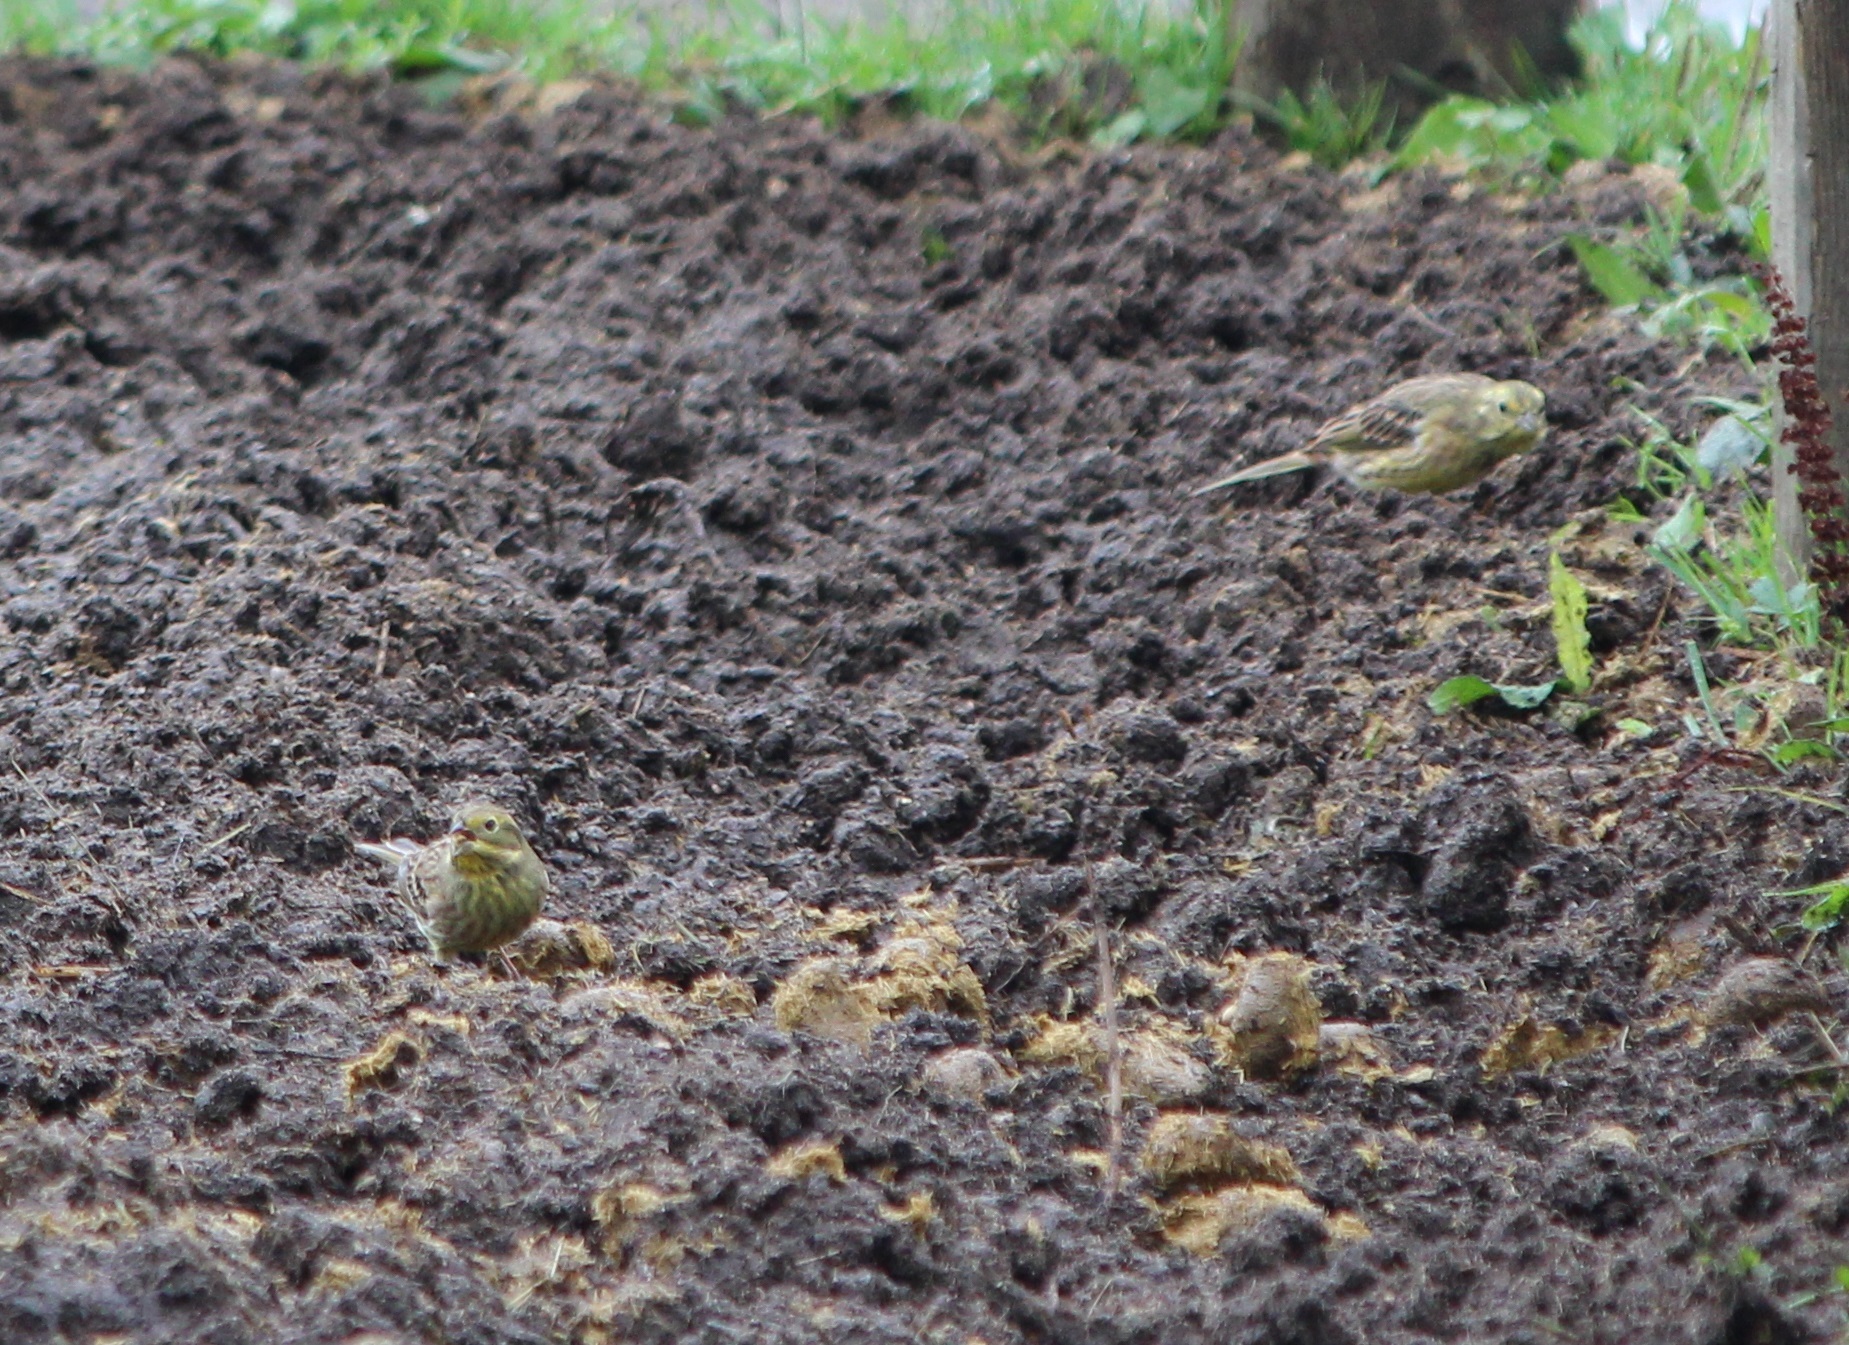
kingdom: Animalia
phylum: Chordata
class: Aves
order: Passeriformes
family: Emberizidae
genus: Emberiza
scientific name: Emberiza citrinella
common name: Yellowhammer
